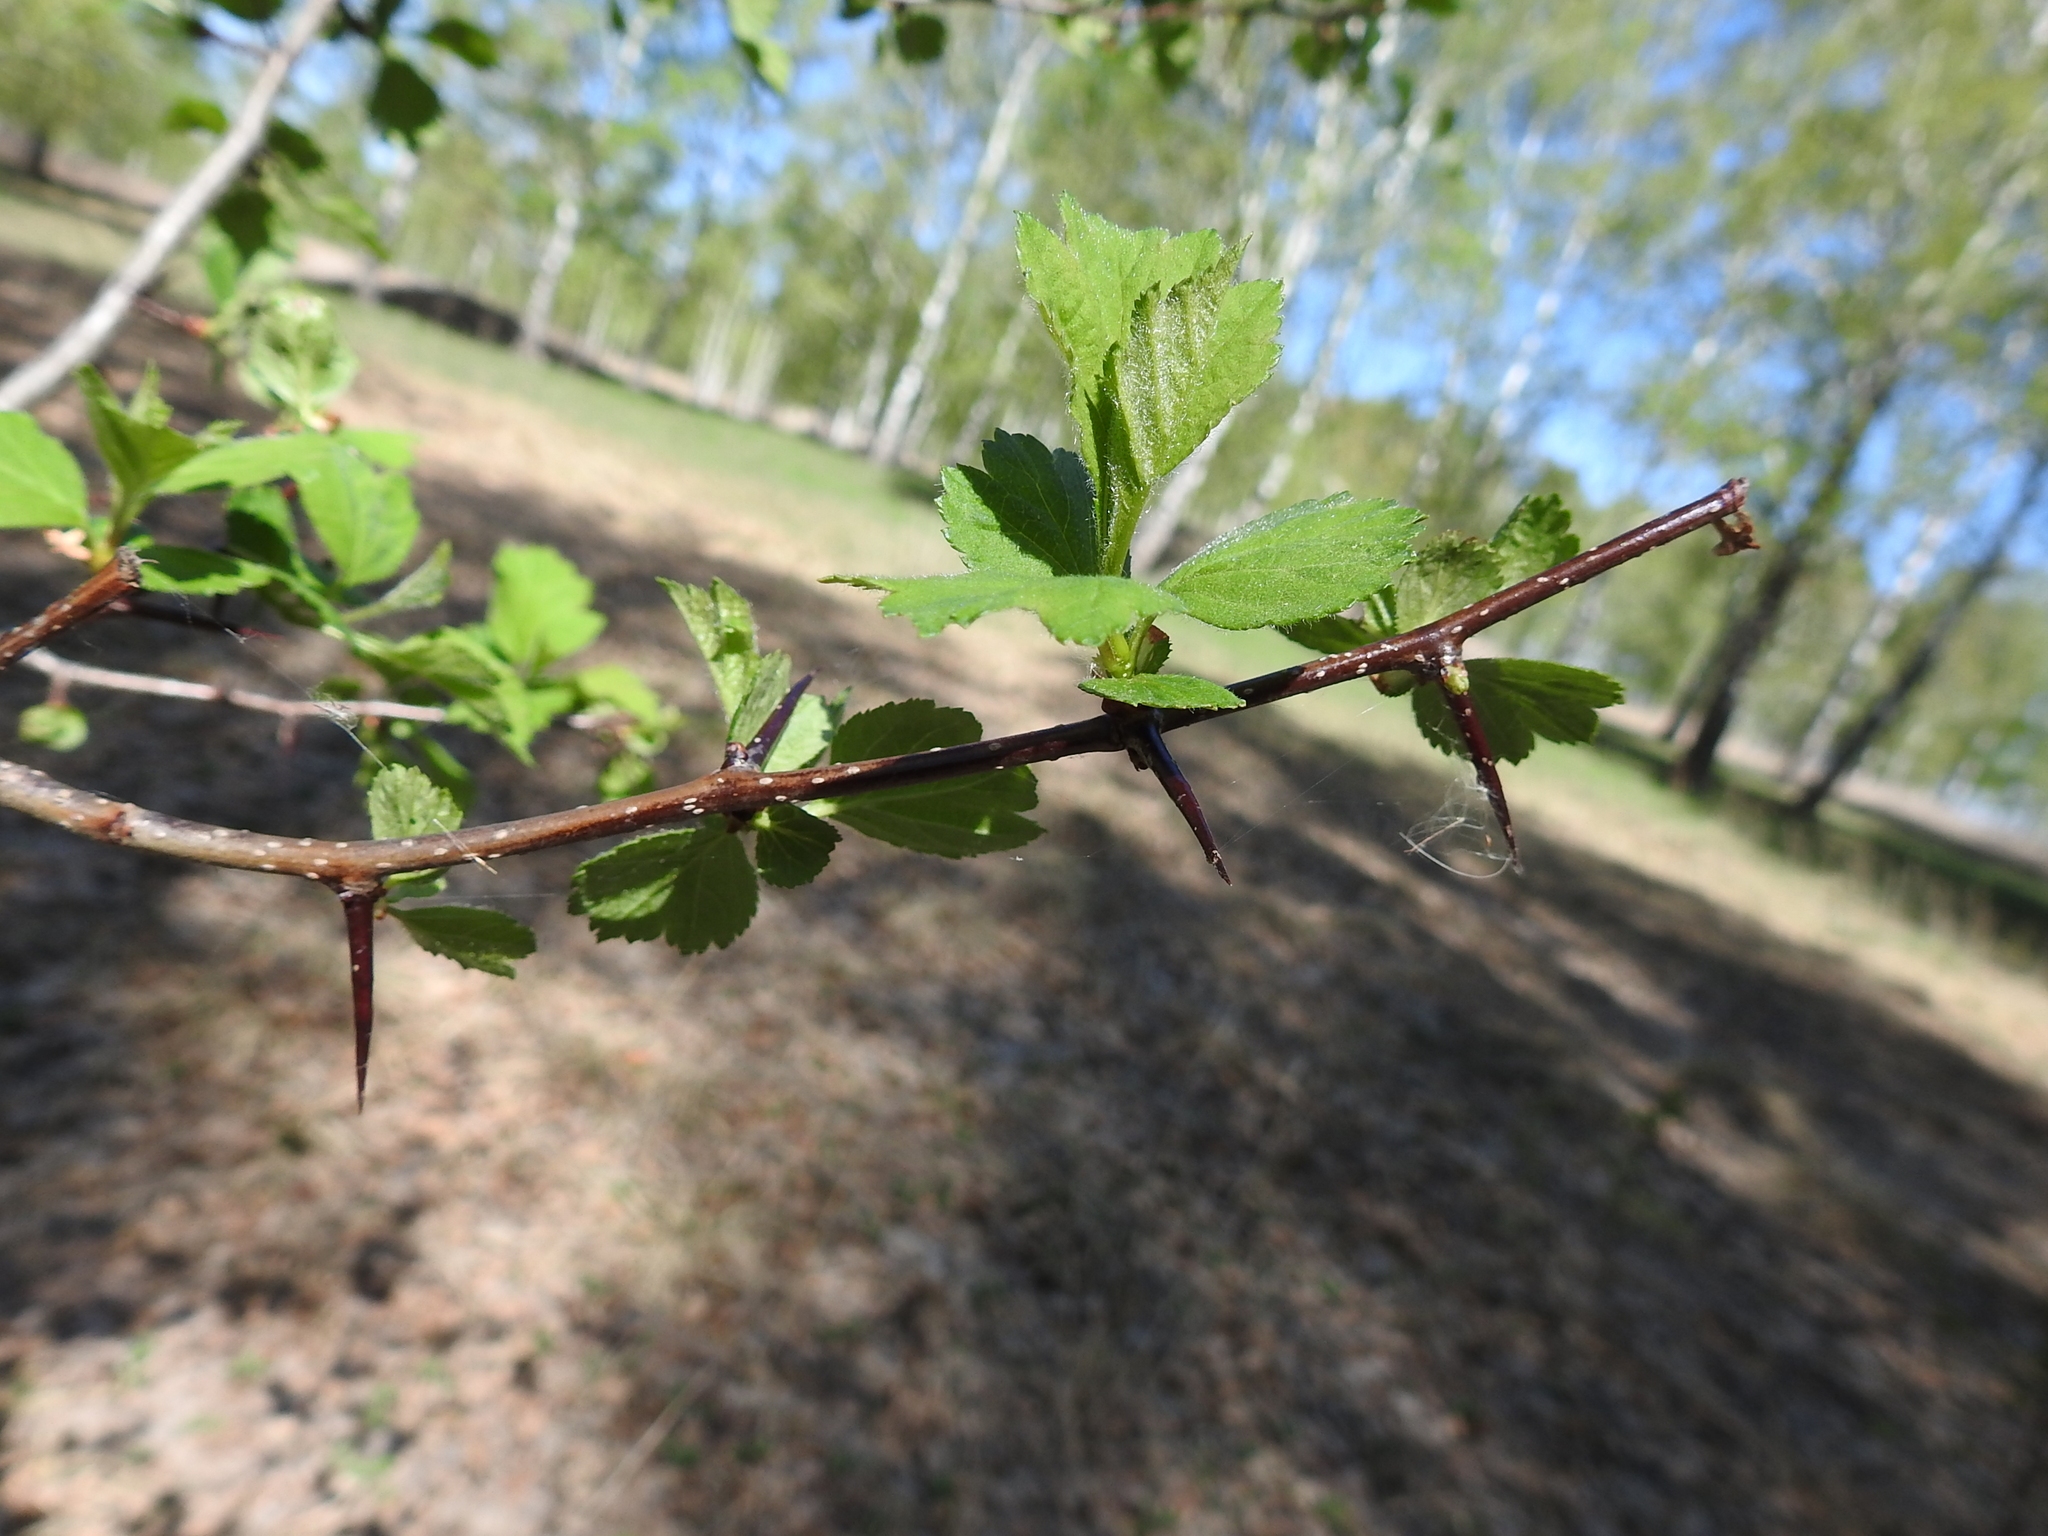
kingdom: Plantae
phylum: Tracheophyta
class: Magnoliopsida
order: Rosales
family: Rosaceae
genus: Crataegus
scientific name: Crataegus sanguinea
